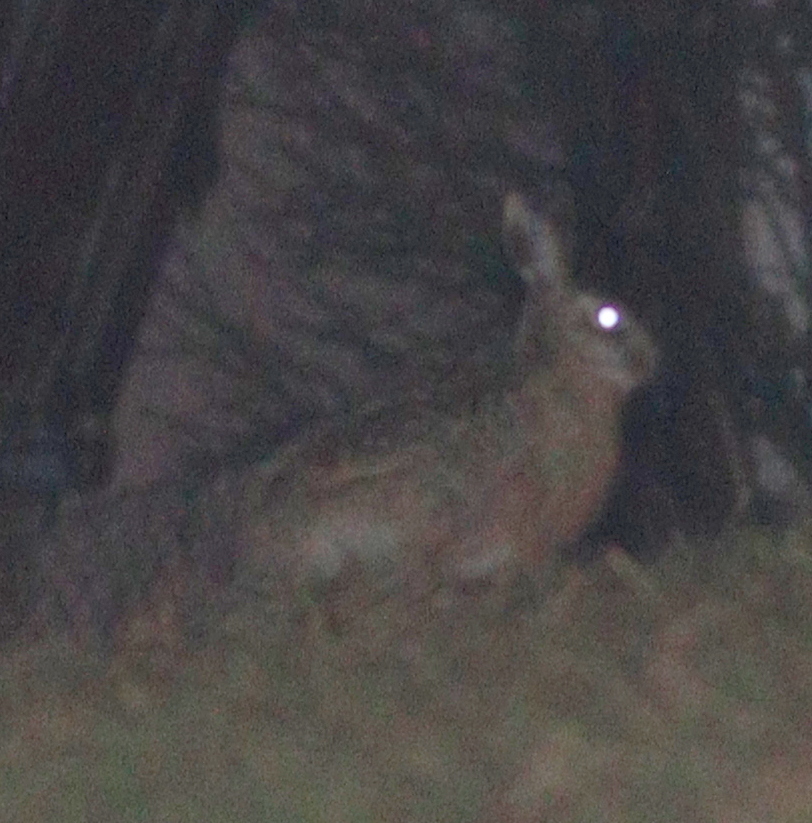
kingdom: Animalia
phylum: Chordata
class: Mammalia
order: Lagomorpha
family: Leporidae
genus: Lepus
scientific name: Lepus europaeus
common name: European hare
